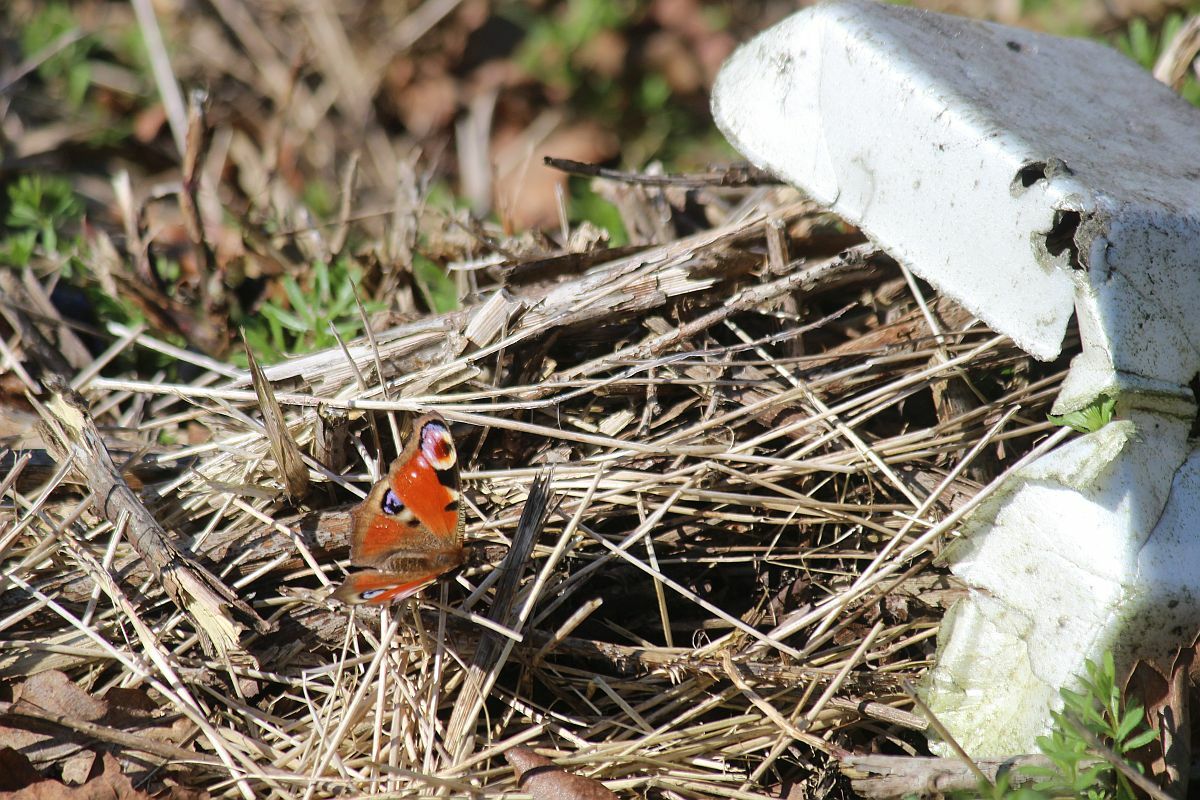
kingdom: Animalia
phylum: Arthropoda
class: Insecta
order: Lepidoptera
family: Nymphalidae
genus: Aglais
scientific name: Aglais io
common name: Peacock
